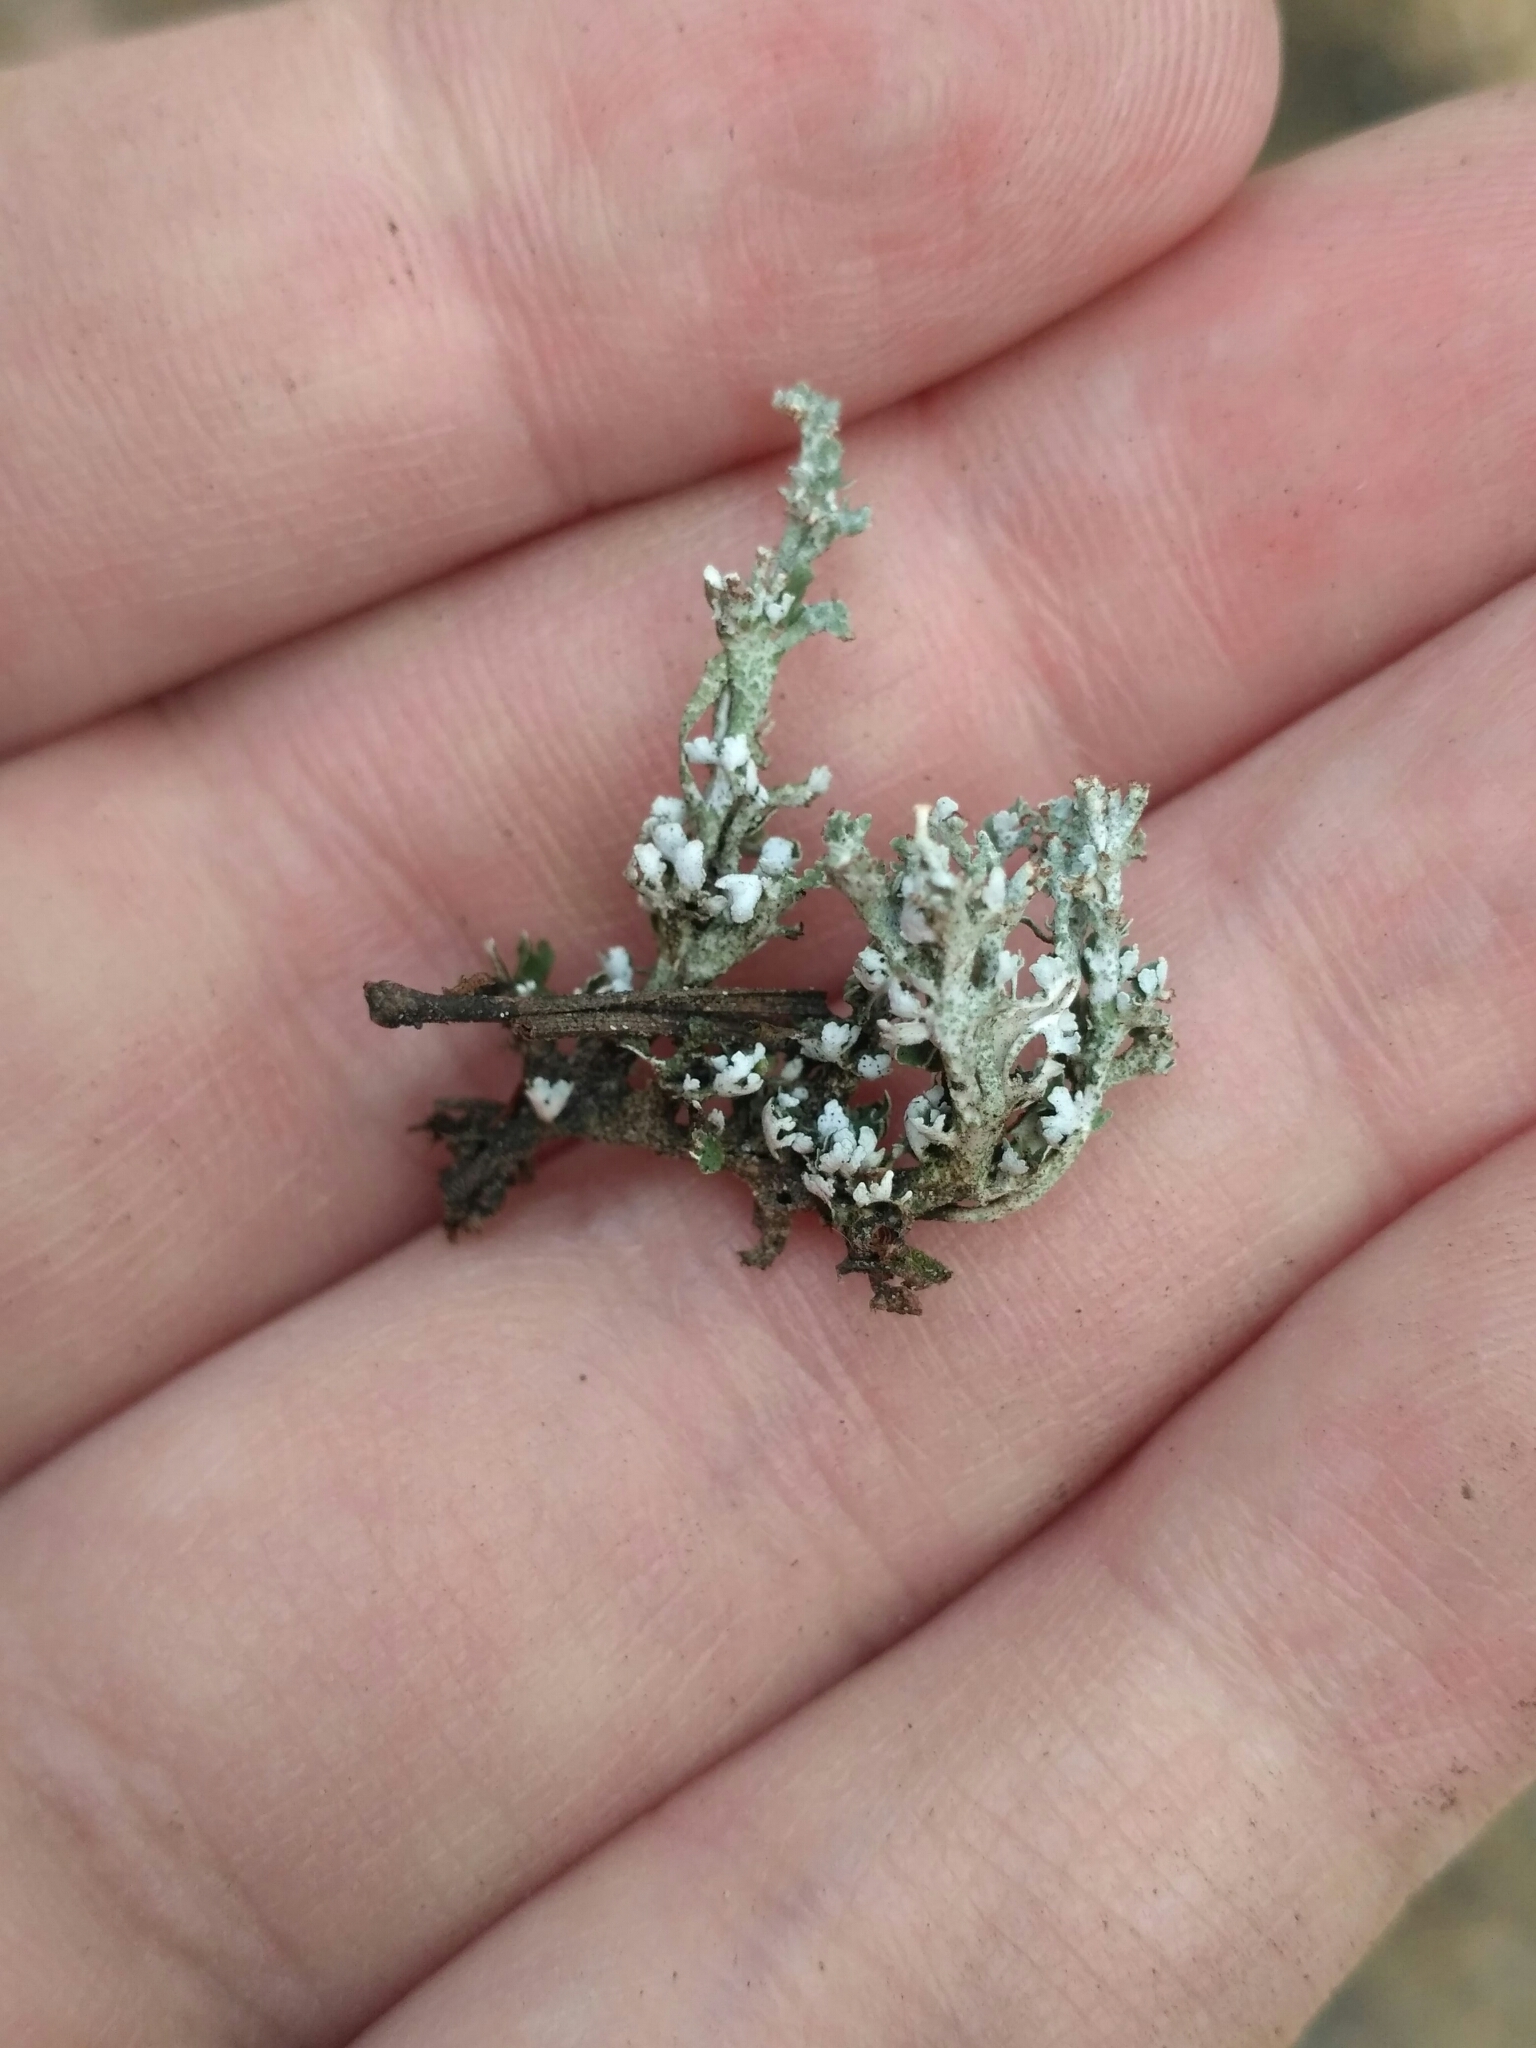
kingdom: Fungi
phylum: Ascomycota
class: Lecanoromycetes
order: Lecanorales
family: Cladoniaceae
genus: Cladonia
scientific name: Cladonia cervicornis
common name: Browned pixie-cup lichen
